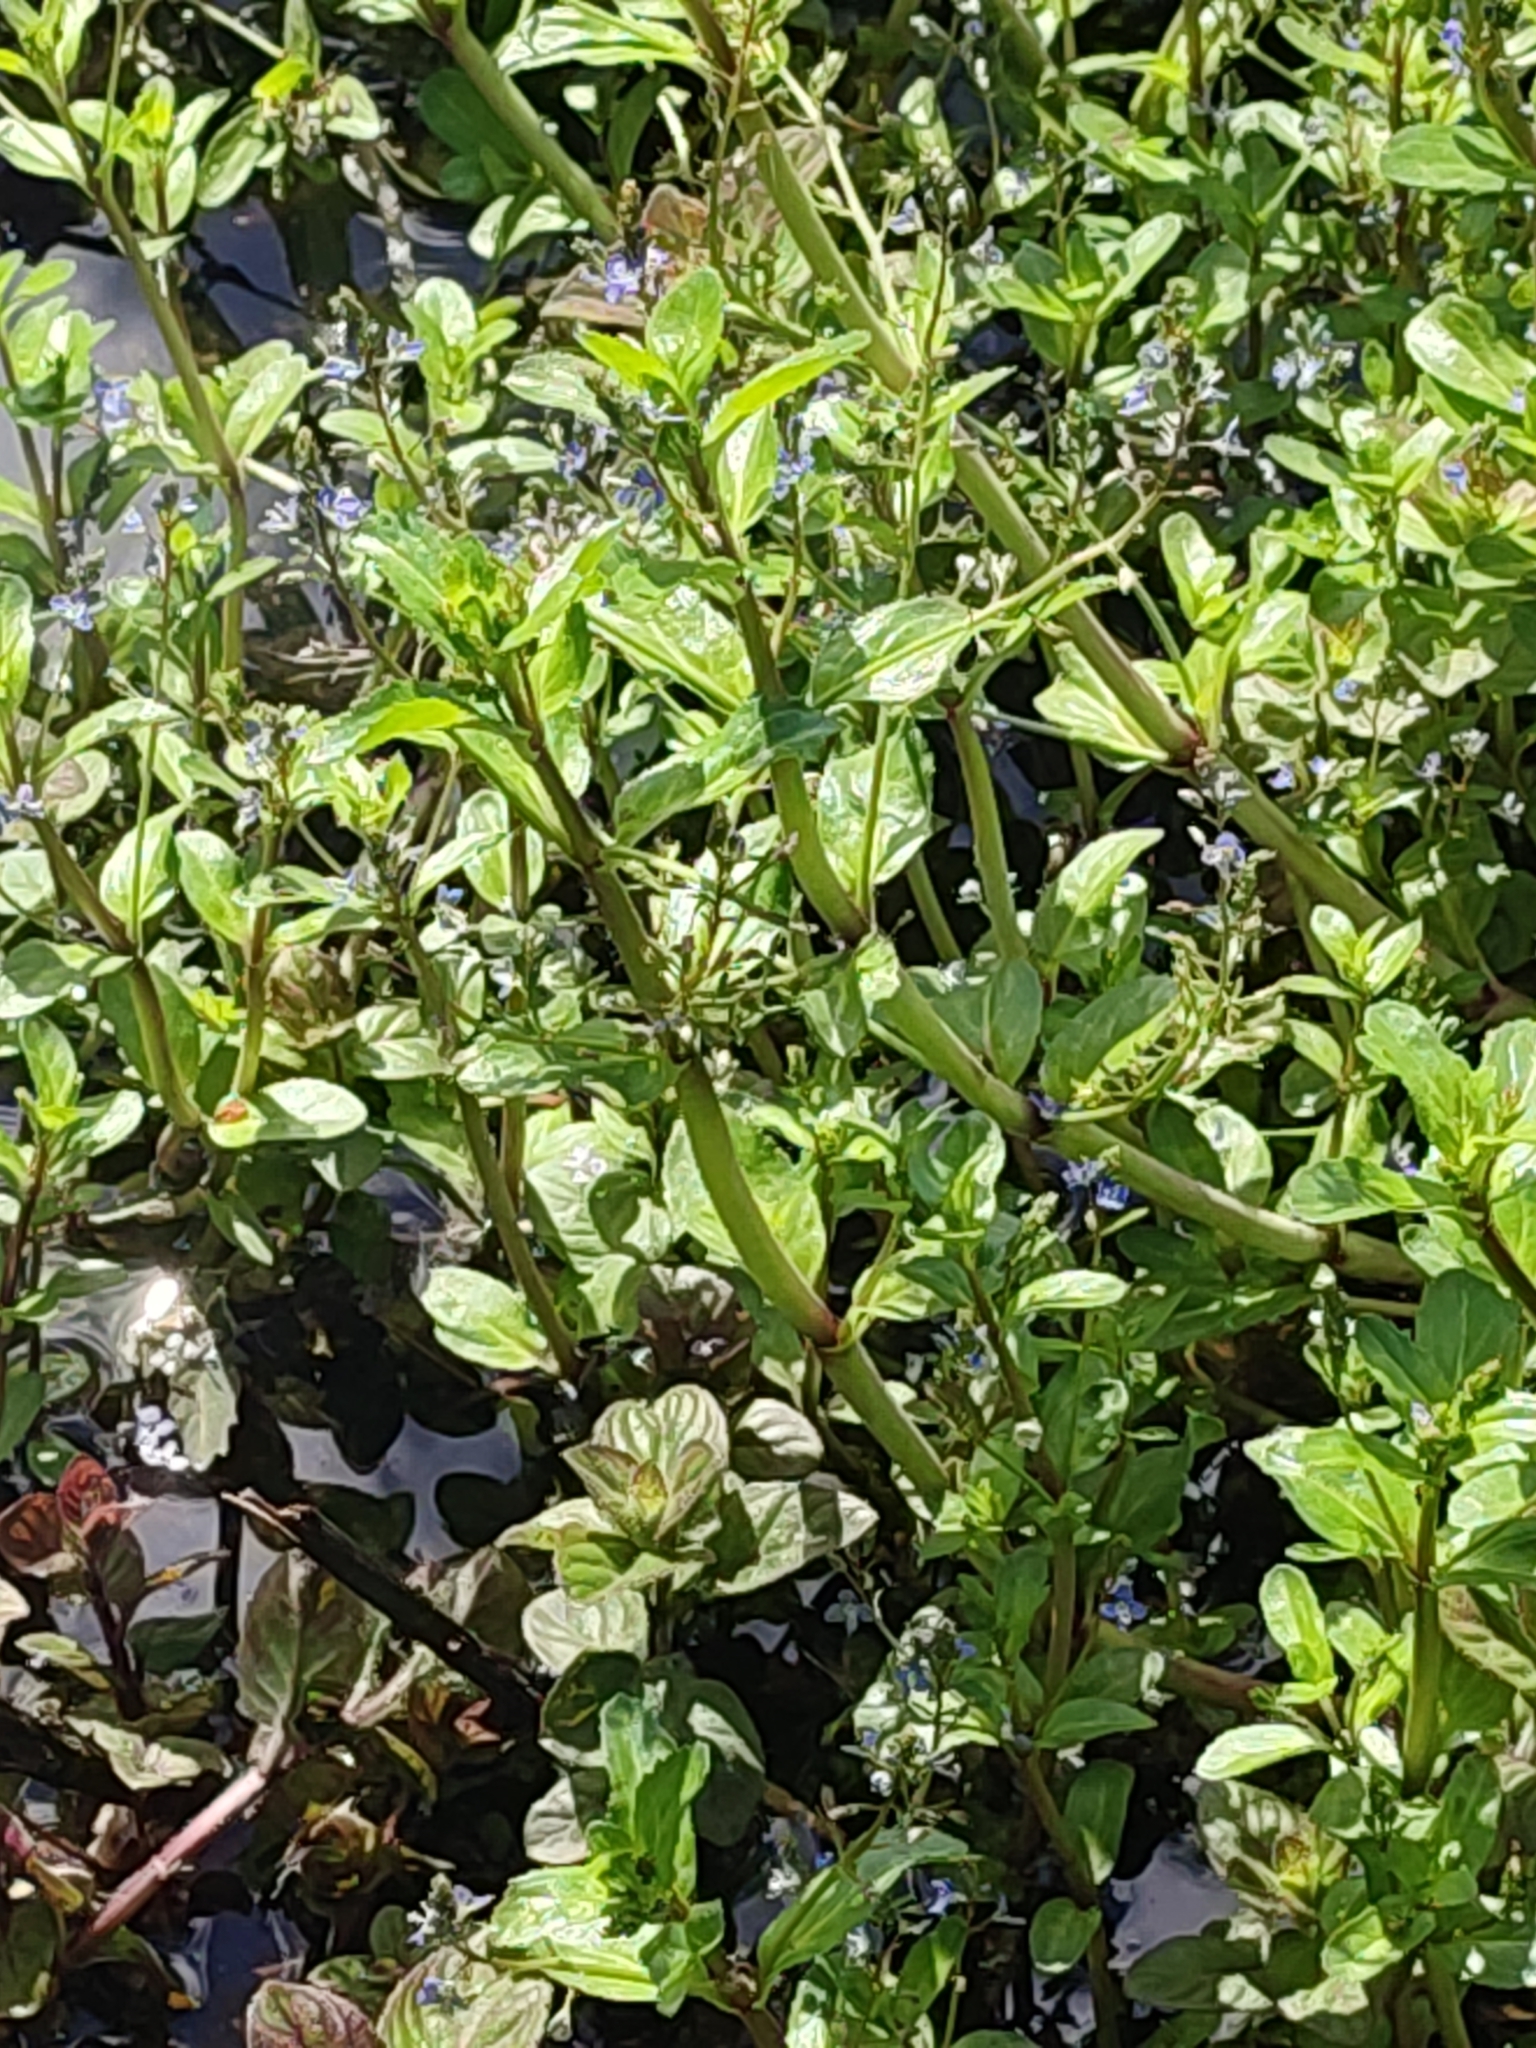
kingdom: Plantae
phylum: Tracheophyta
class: Magnoliopsida
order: Lamiales
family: Plantaginaceae
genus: Veronica
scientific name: Veronica beccabunga
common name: Brooklime
